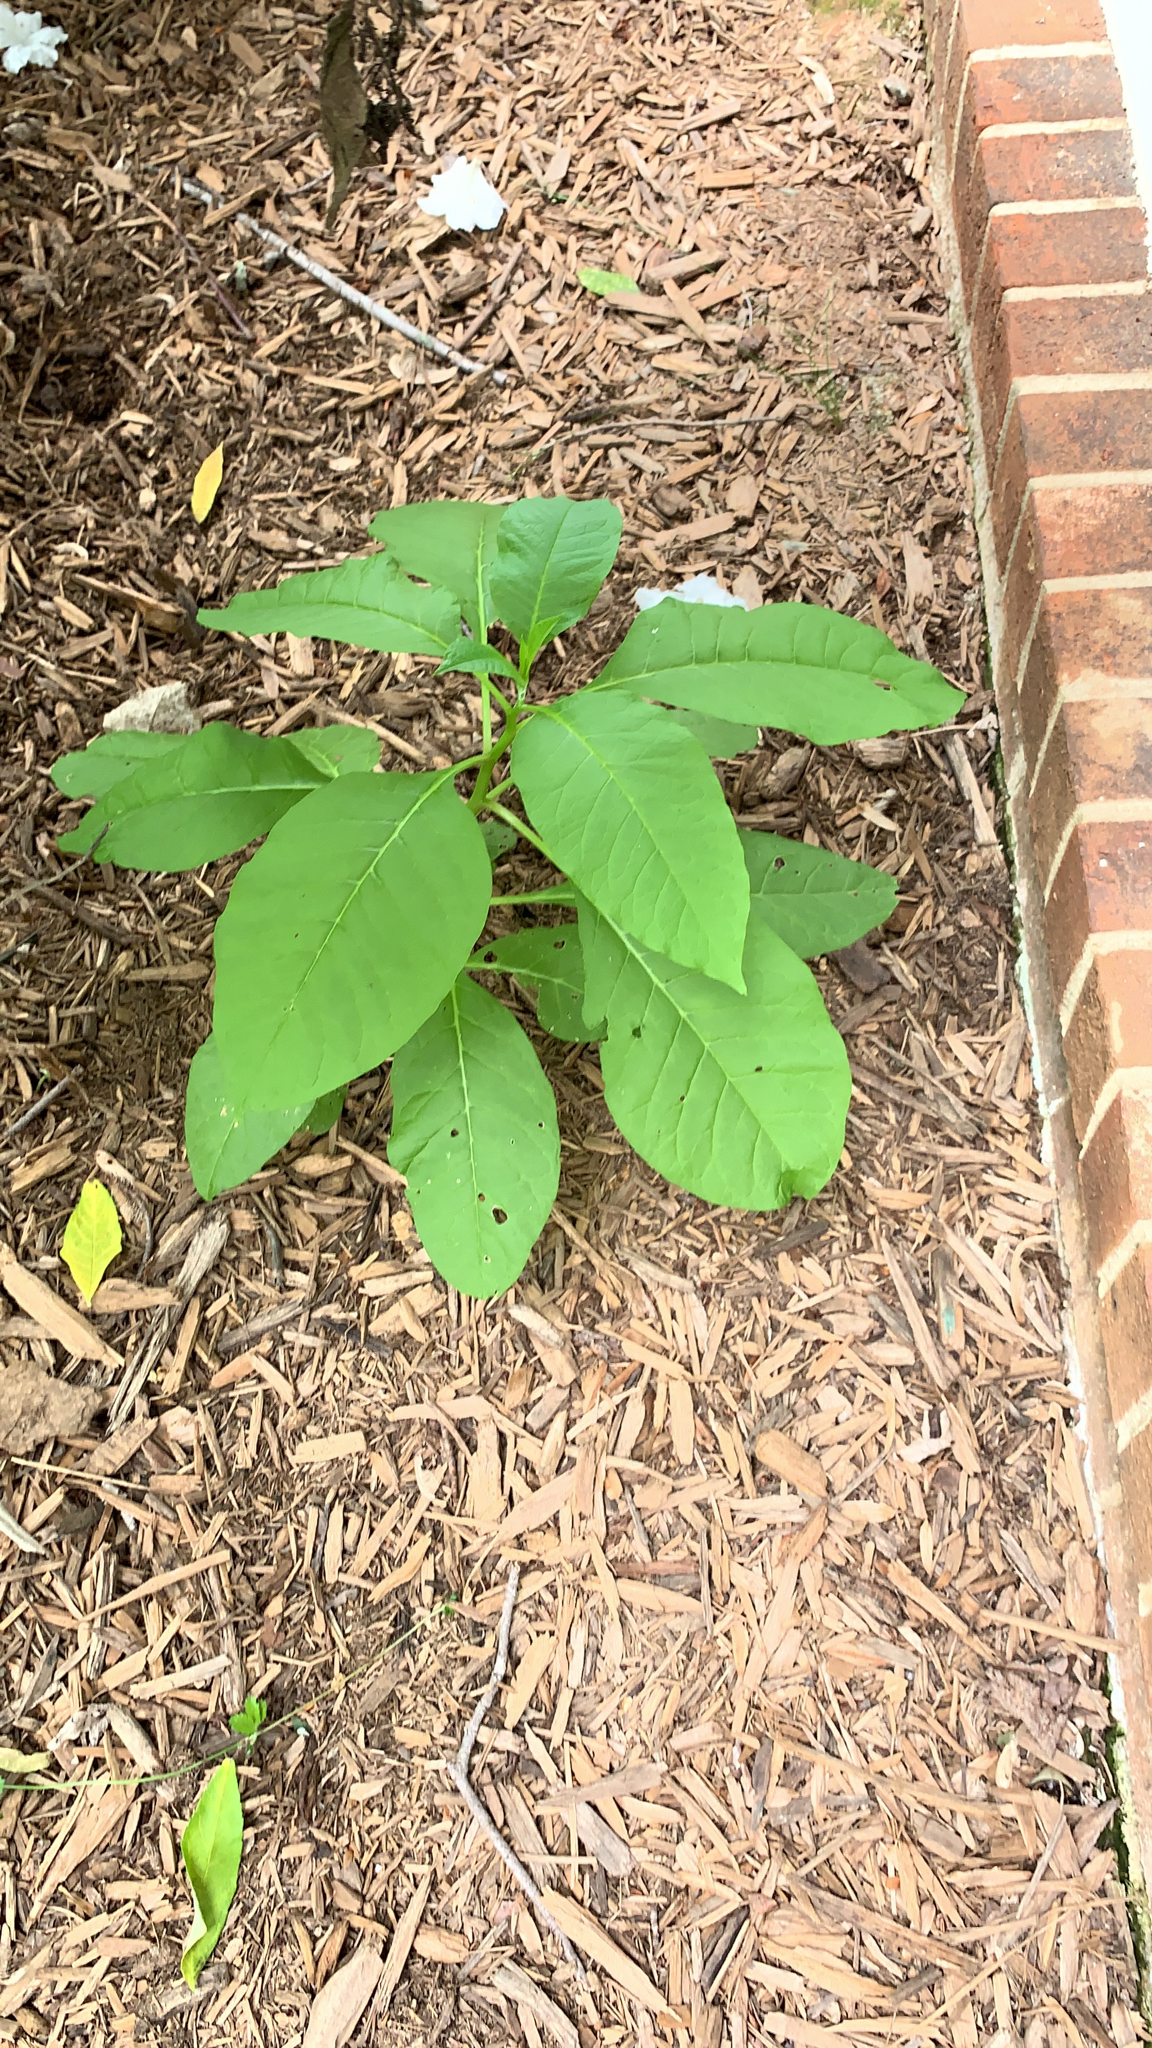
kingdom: Plantae
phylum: Tracheophyta
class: Magnoliopsida
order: Caryophyllales
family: Phytolaccaceae
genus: Phytolacca
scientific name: Phytolacca americana
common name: American pokeweed
